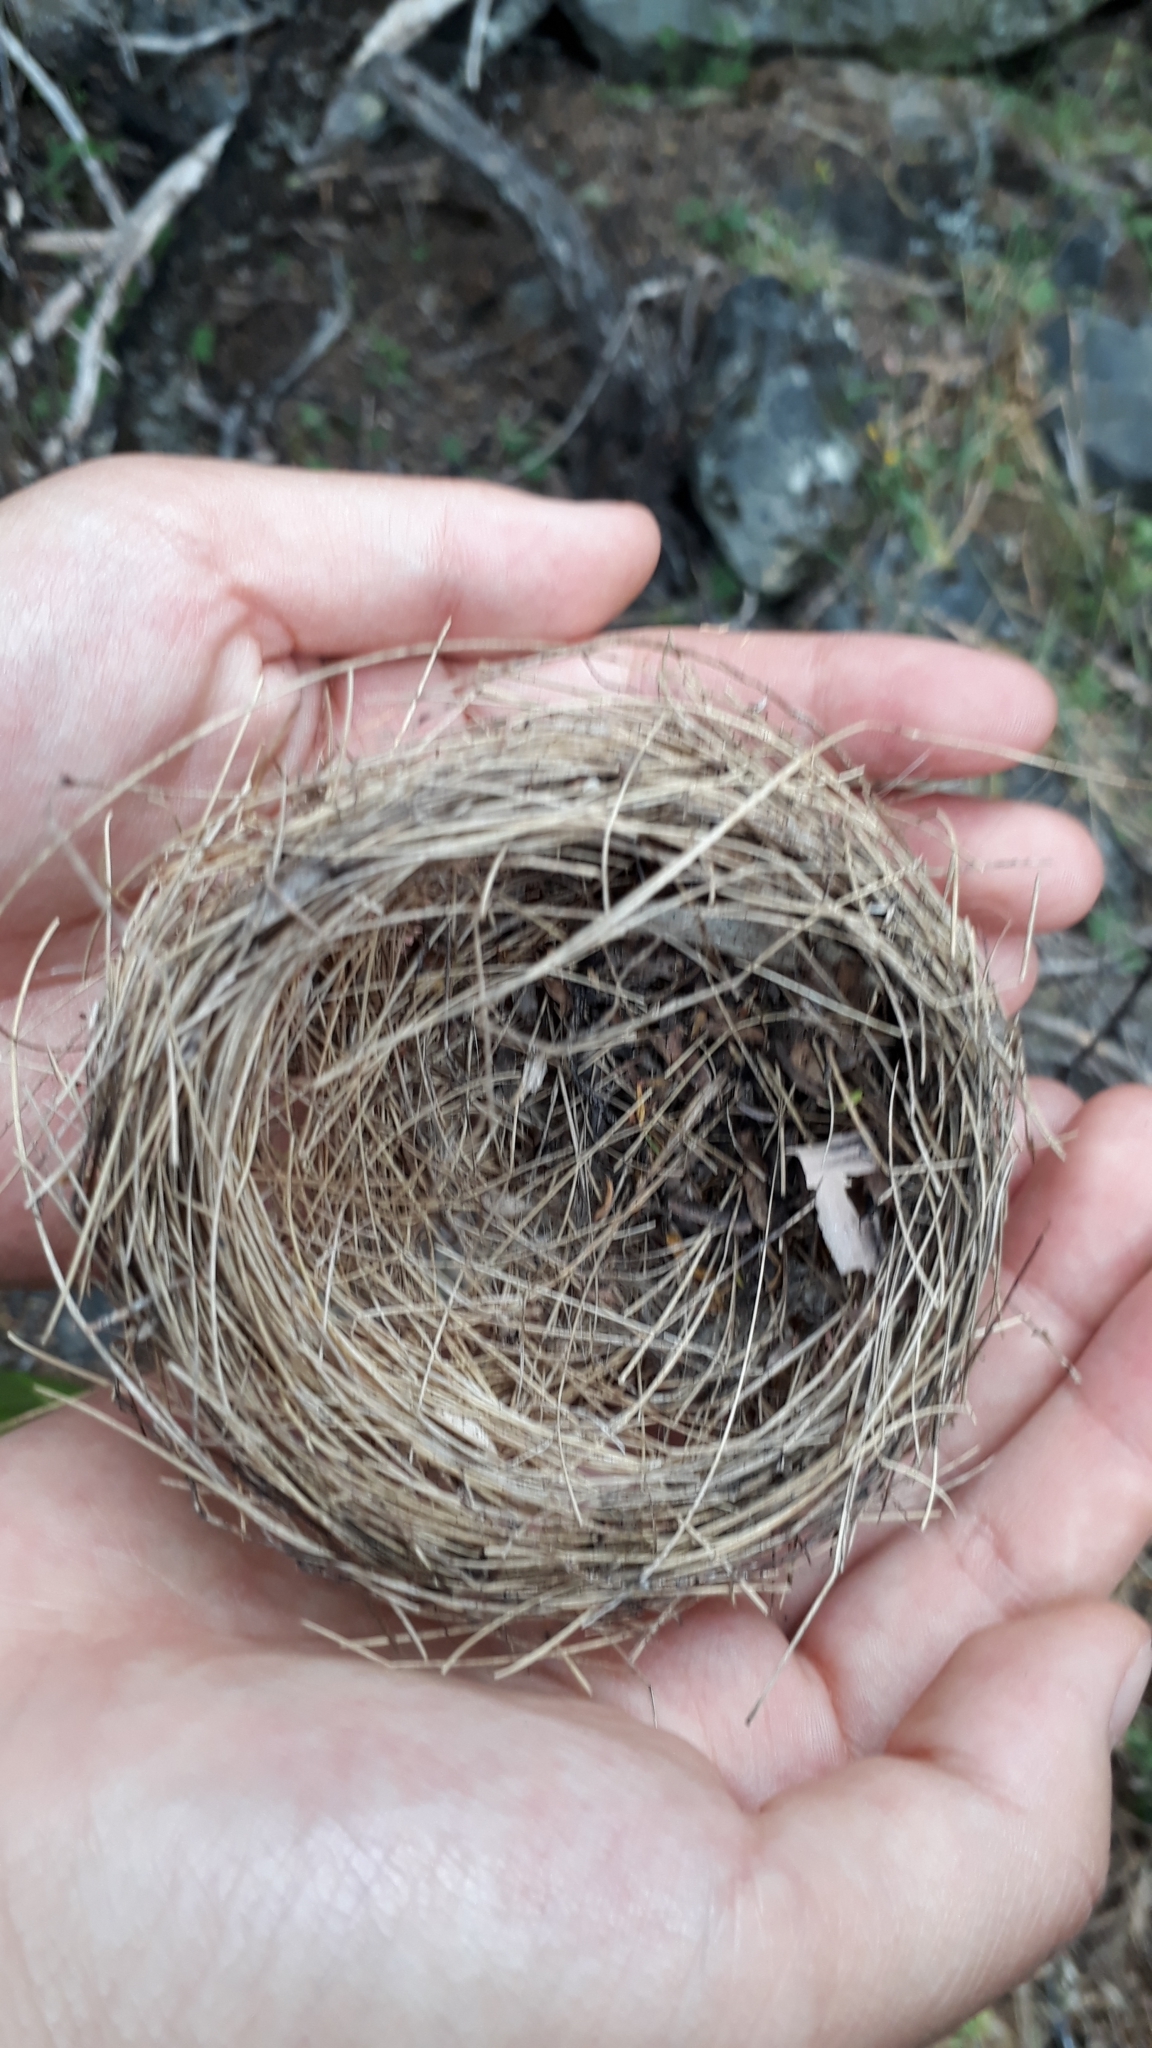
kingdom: Animalia
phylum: Chordata
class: Aves
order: Passeriformes
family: Zosteropidae
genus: Zosterops
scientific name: Zosterops lateralis
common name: Silvereye
